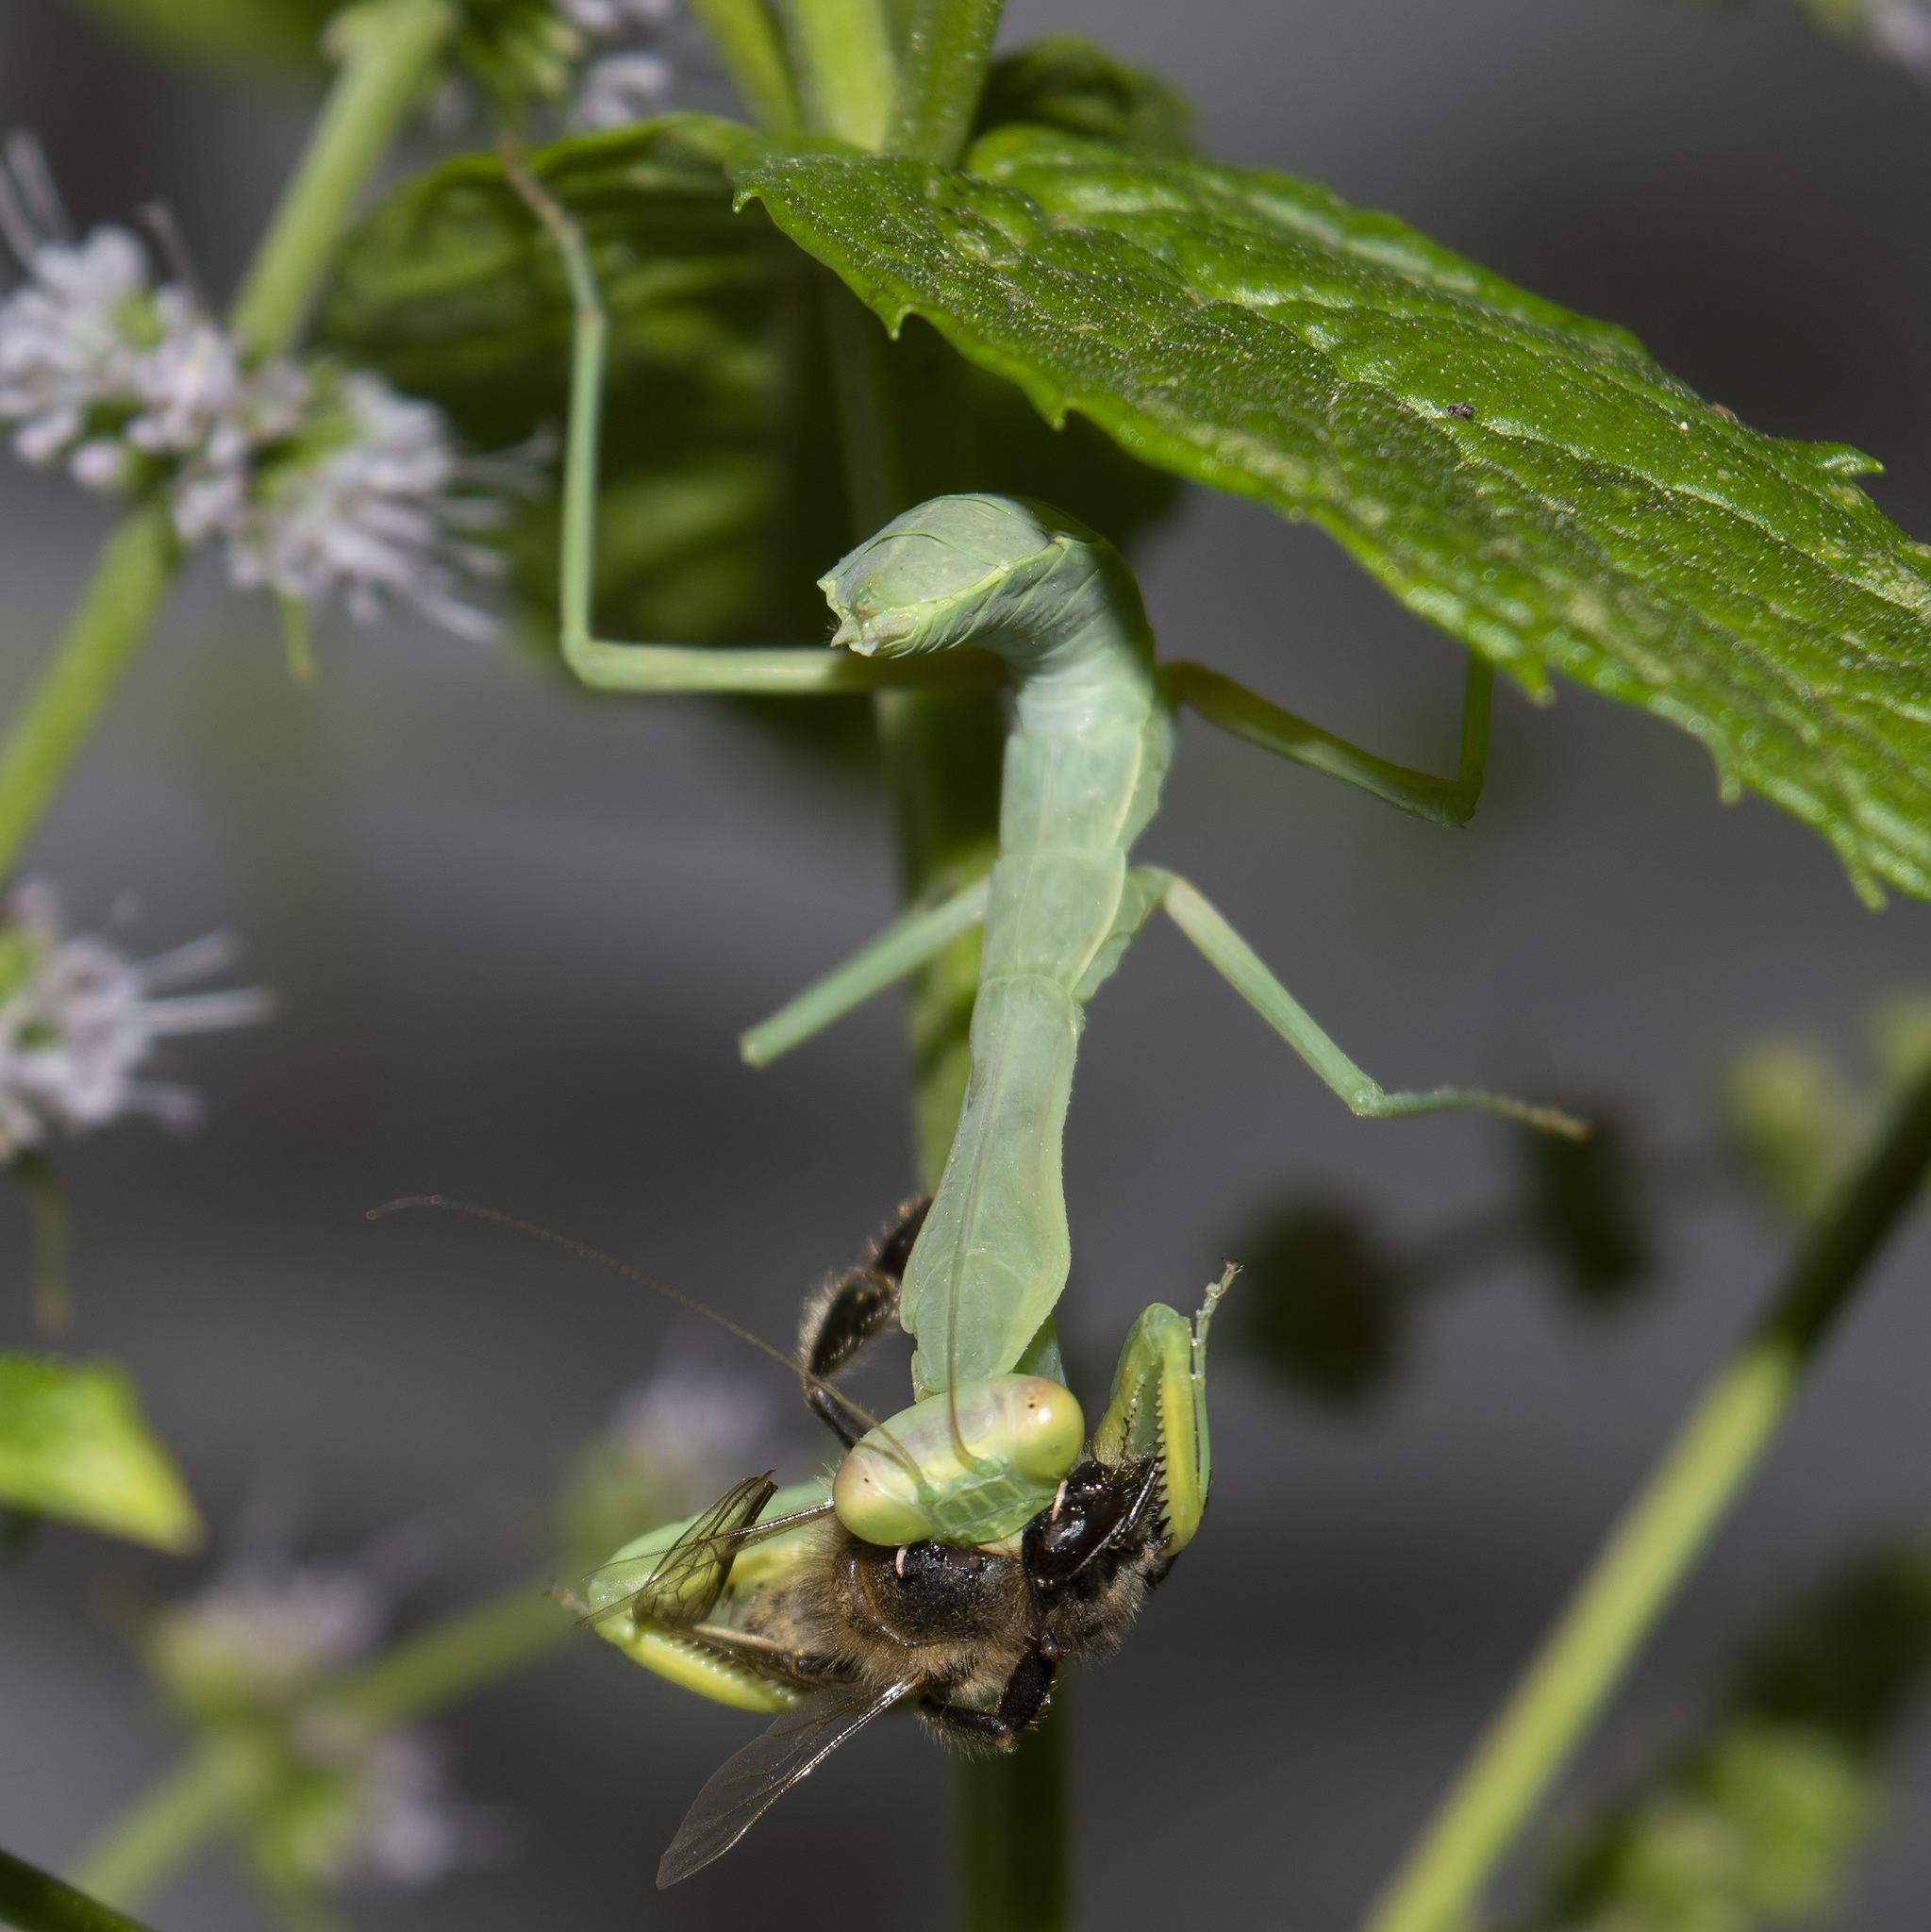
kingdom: Animalia
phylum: Arthropoda
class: Insecta
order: Mantodea
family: Mantidae
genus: Hierodula
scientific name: Hierodula transcaucasica
